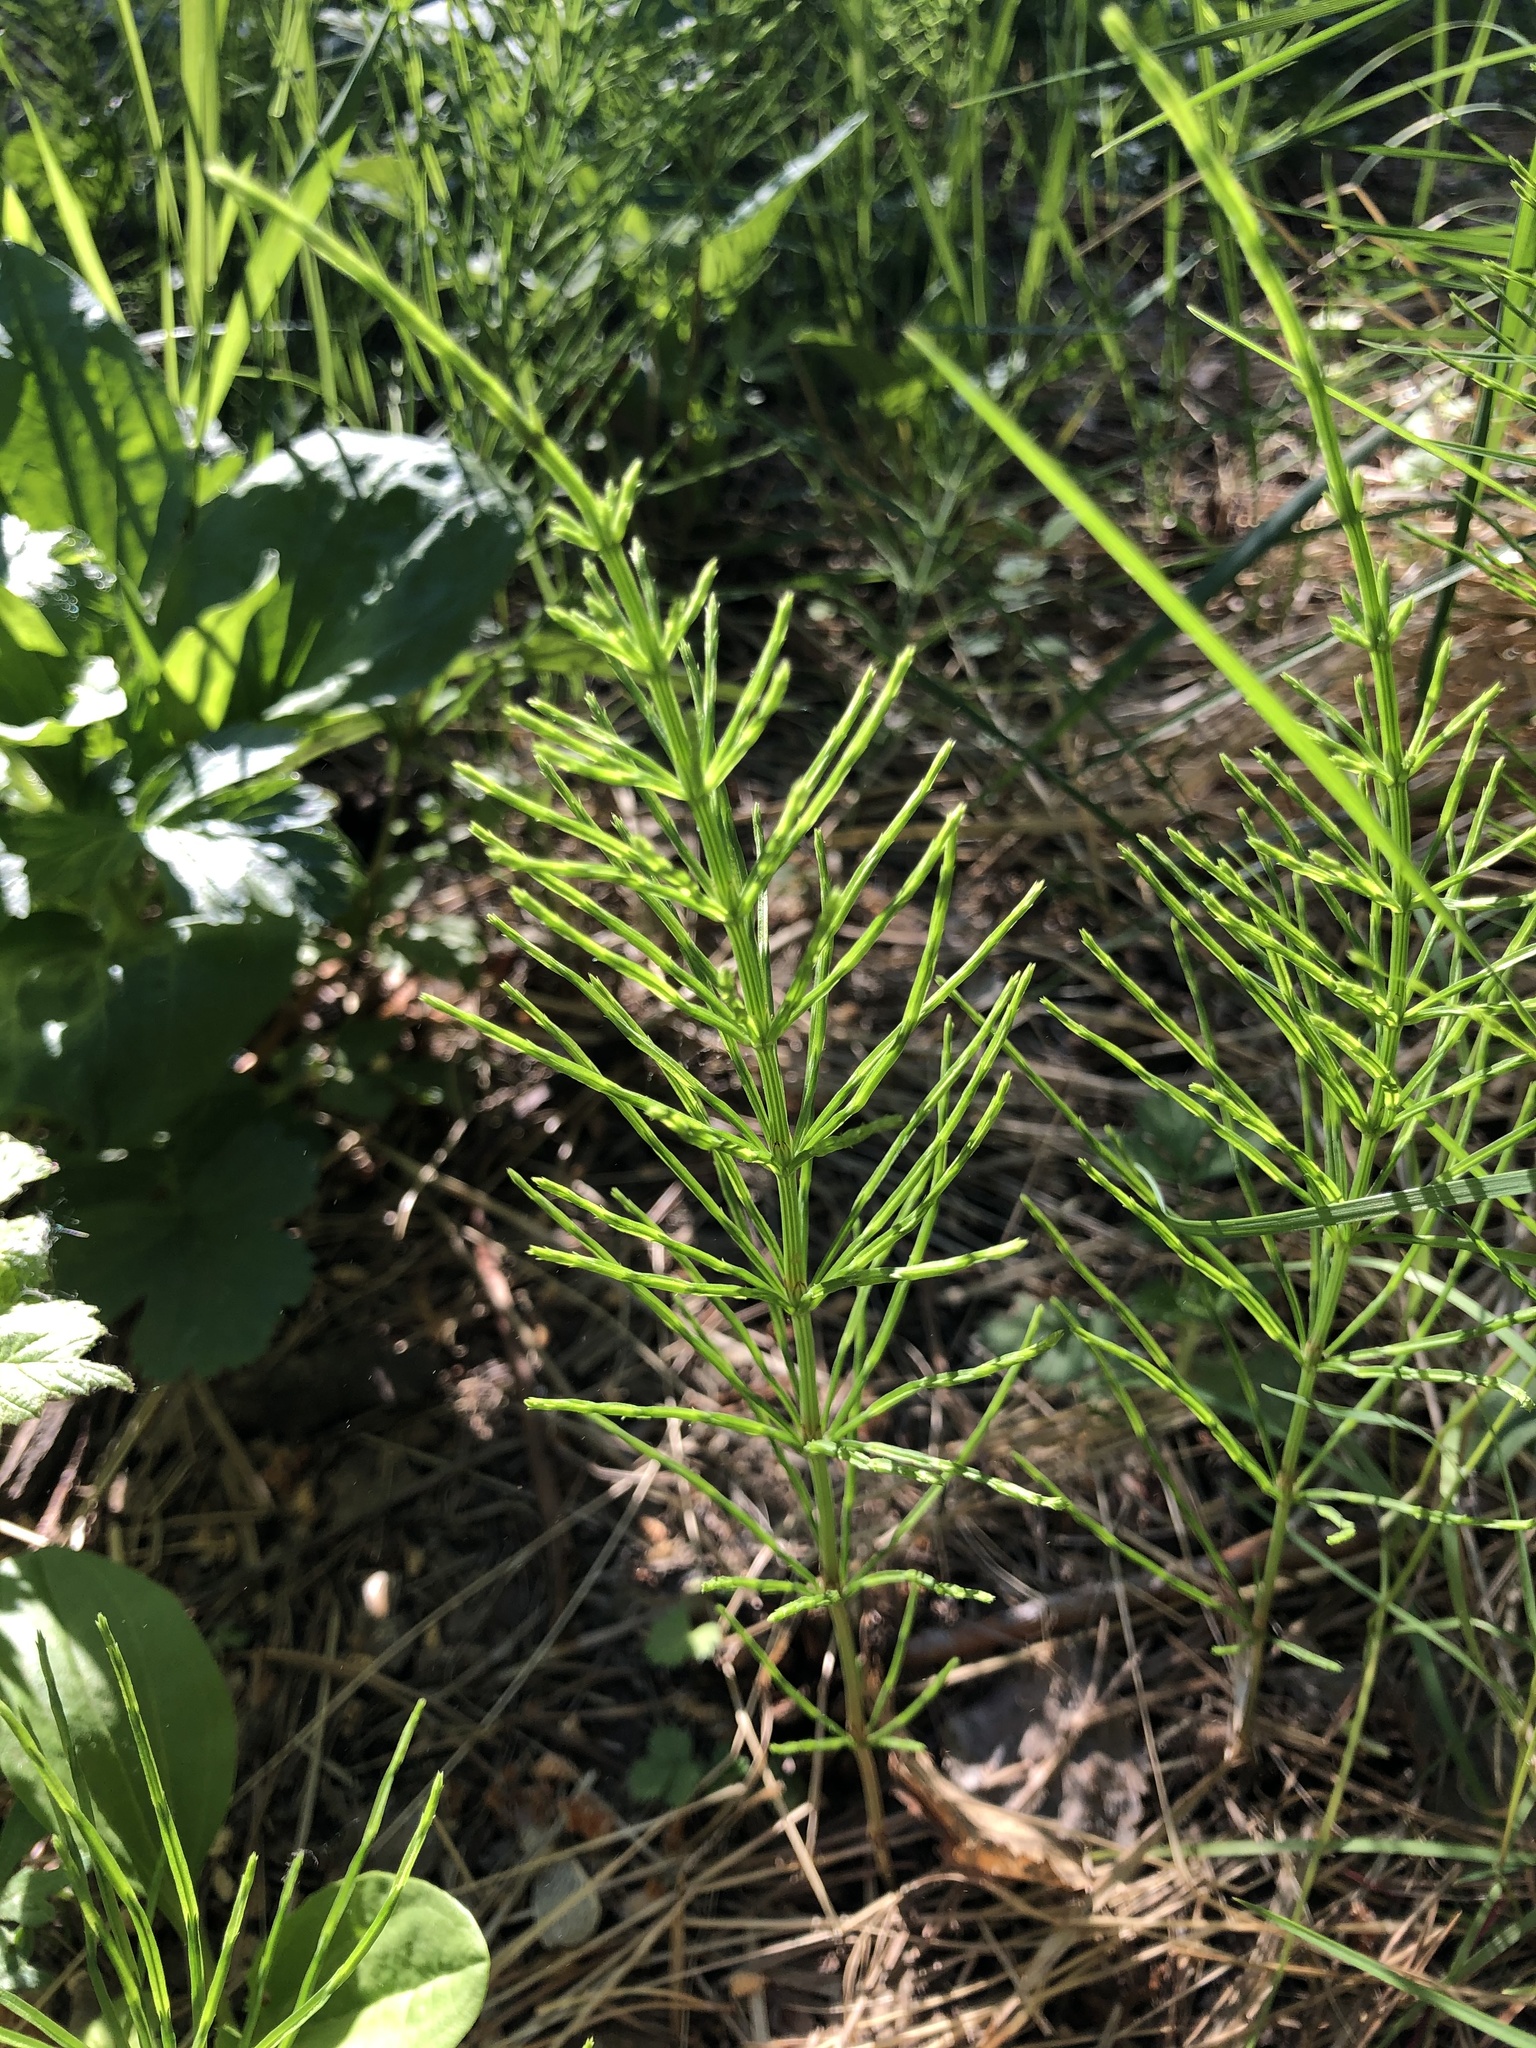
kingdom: Plantae
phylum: Tracheophyta
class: Polypodiopsida
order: Equisetales
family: Equisetaceae
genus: Equisetum
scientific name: Equisetum arvense
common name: Field horsetail
